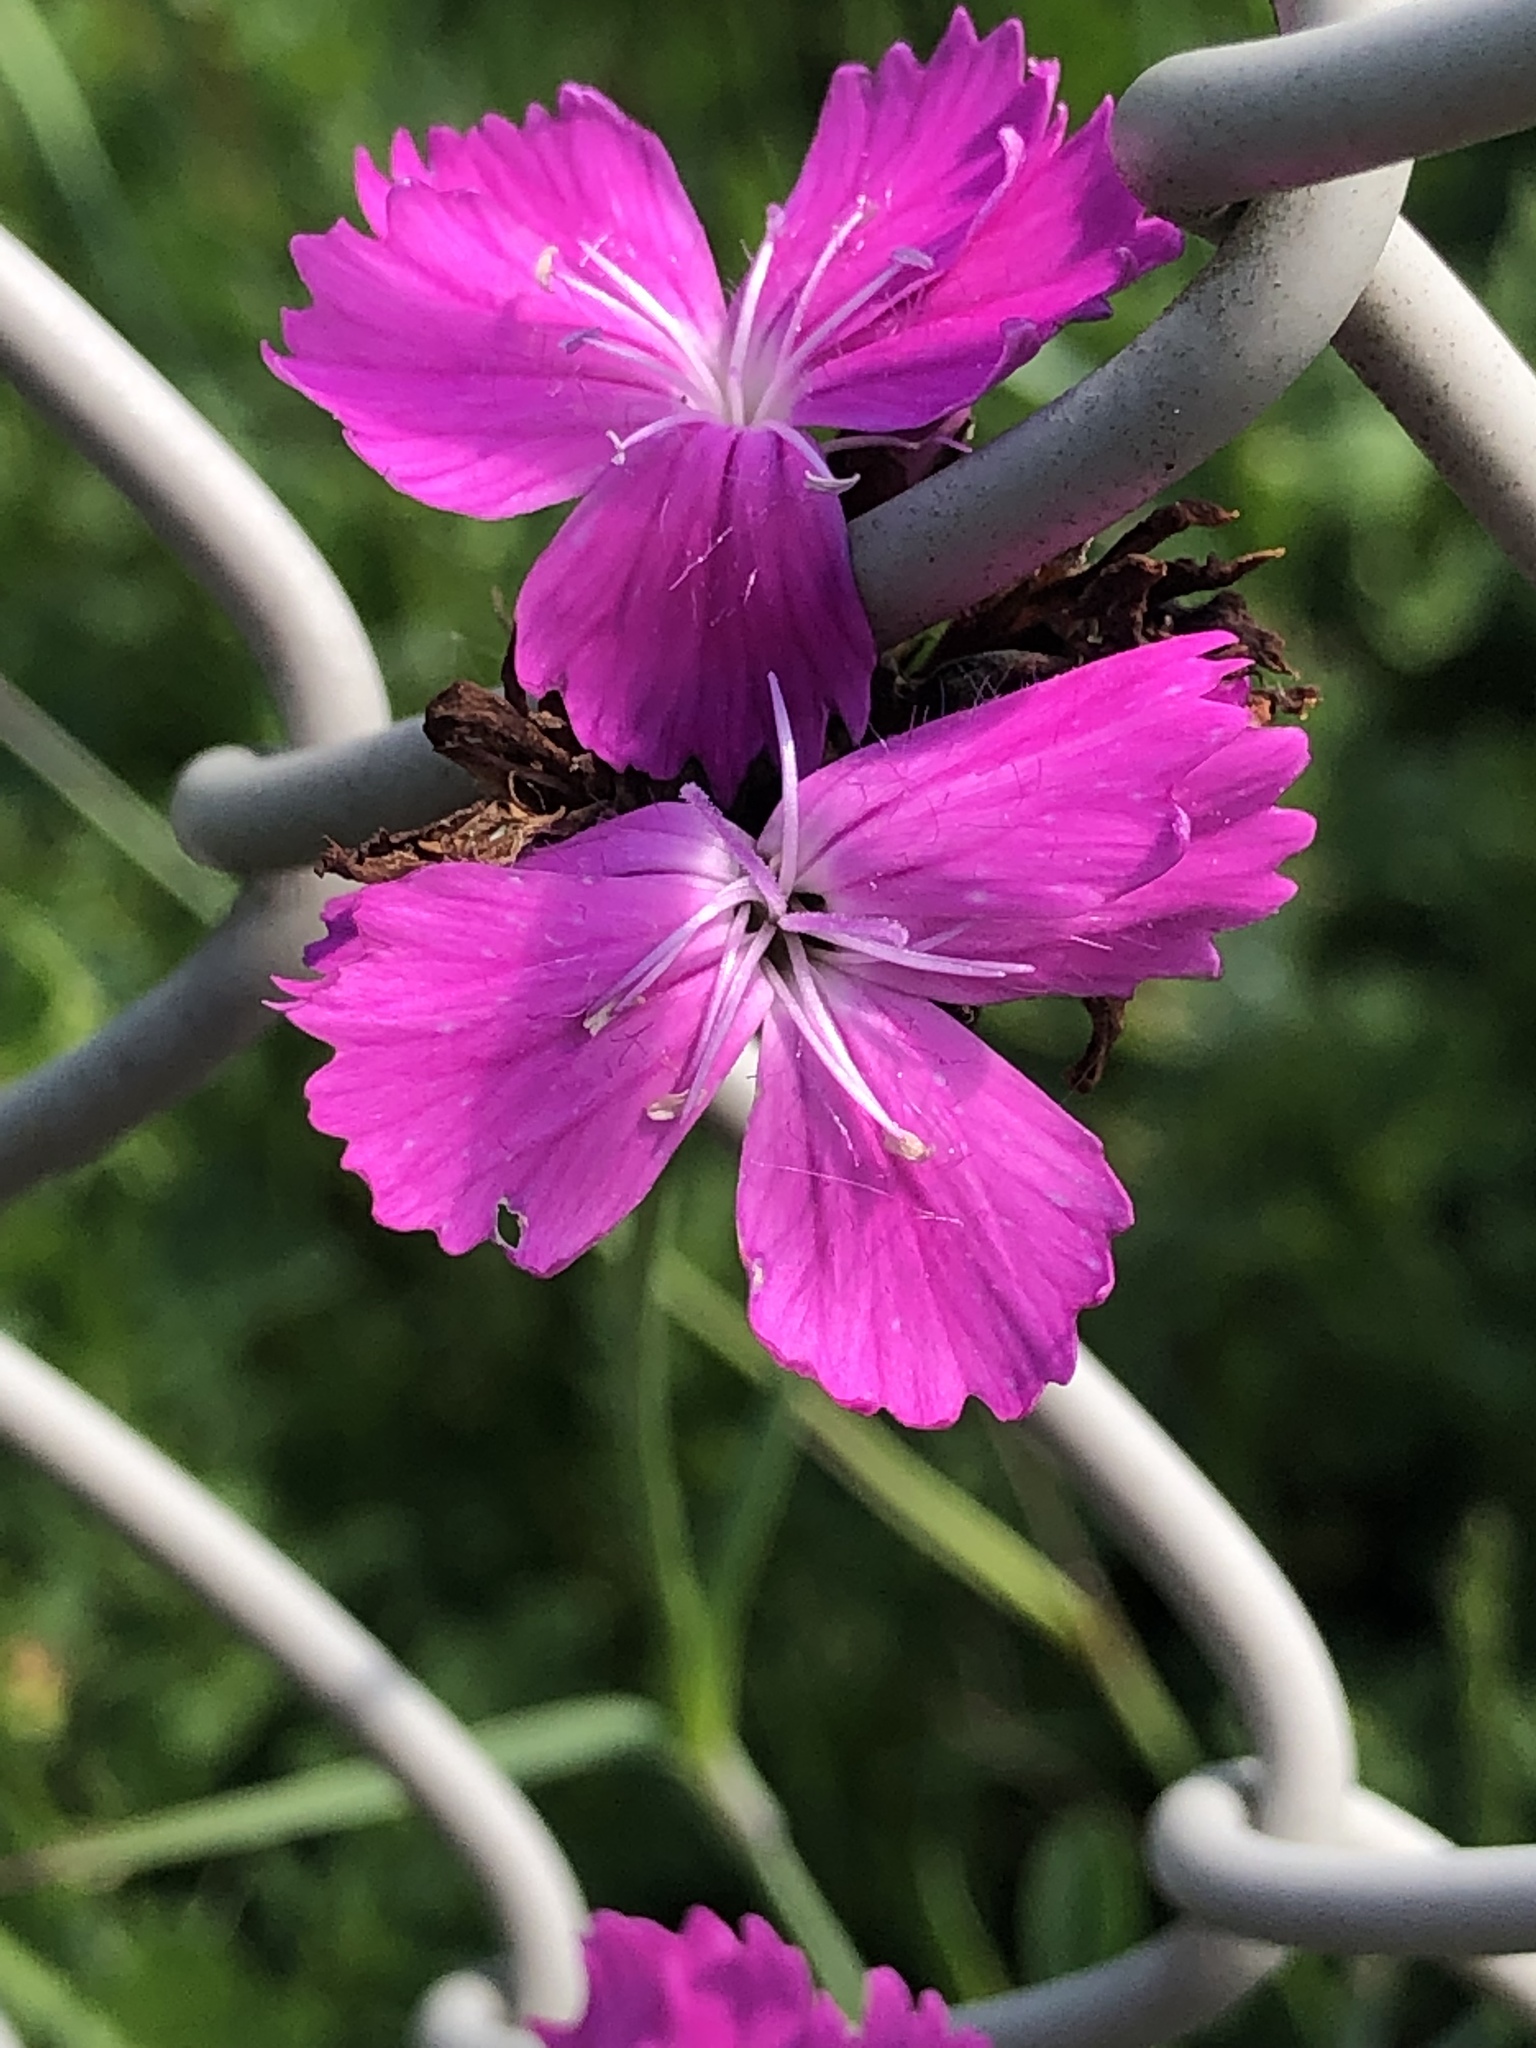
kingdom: Plantae
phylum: Tracheophyta
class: Magnoliopsida
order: Caryophyllales
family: Caryophyllaceae
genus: Dianthus
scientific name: Dianthus carthusianorum
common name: Carthusian pink
